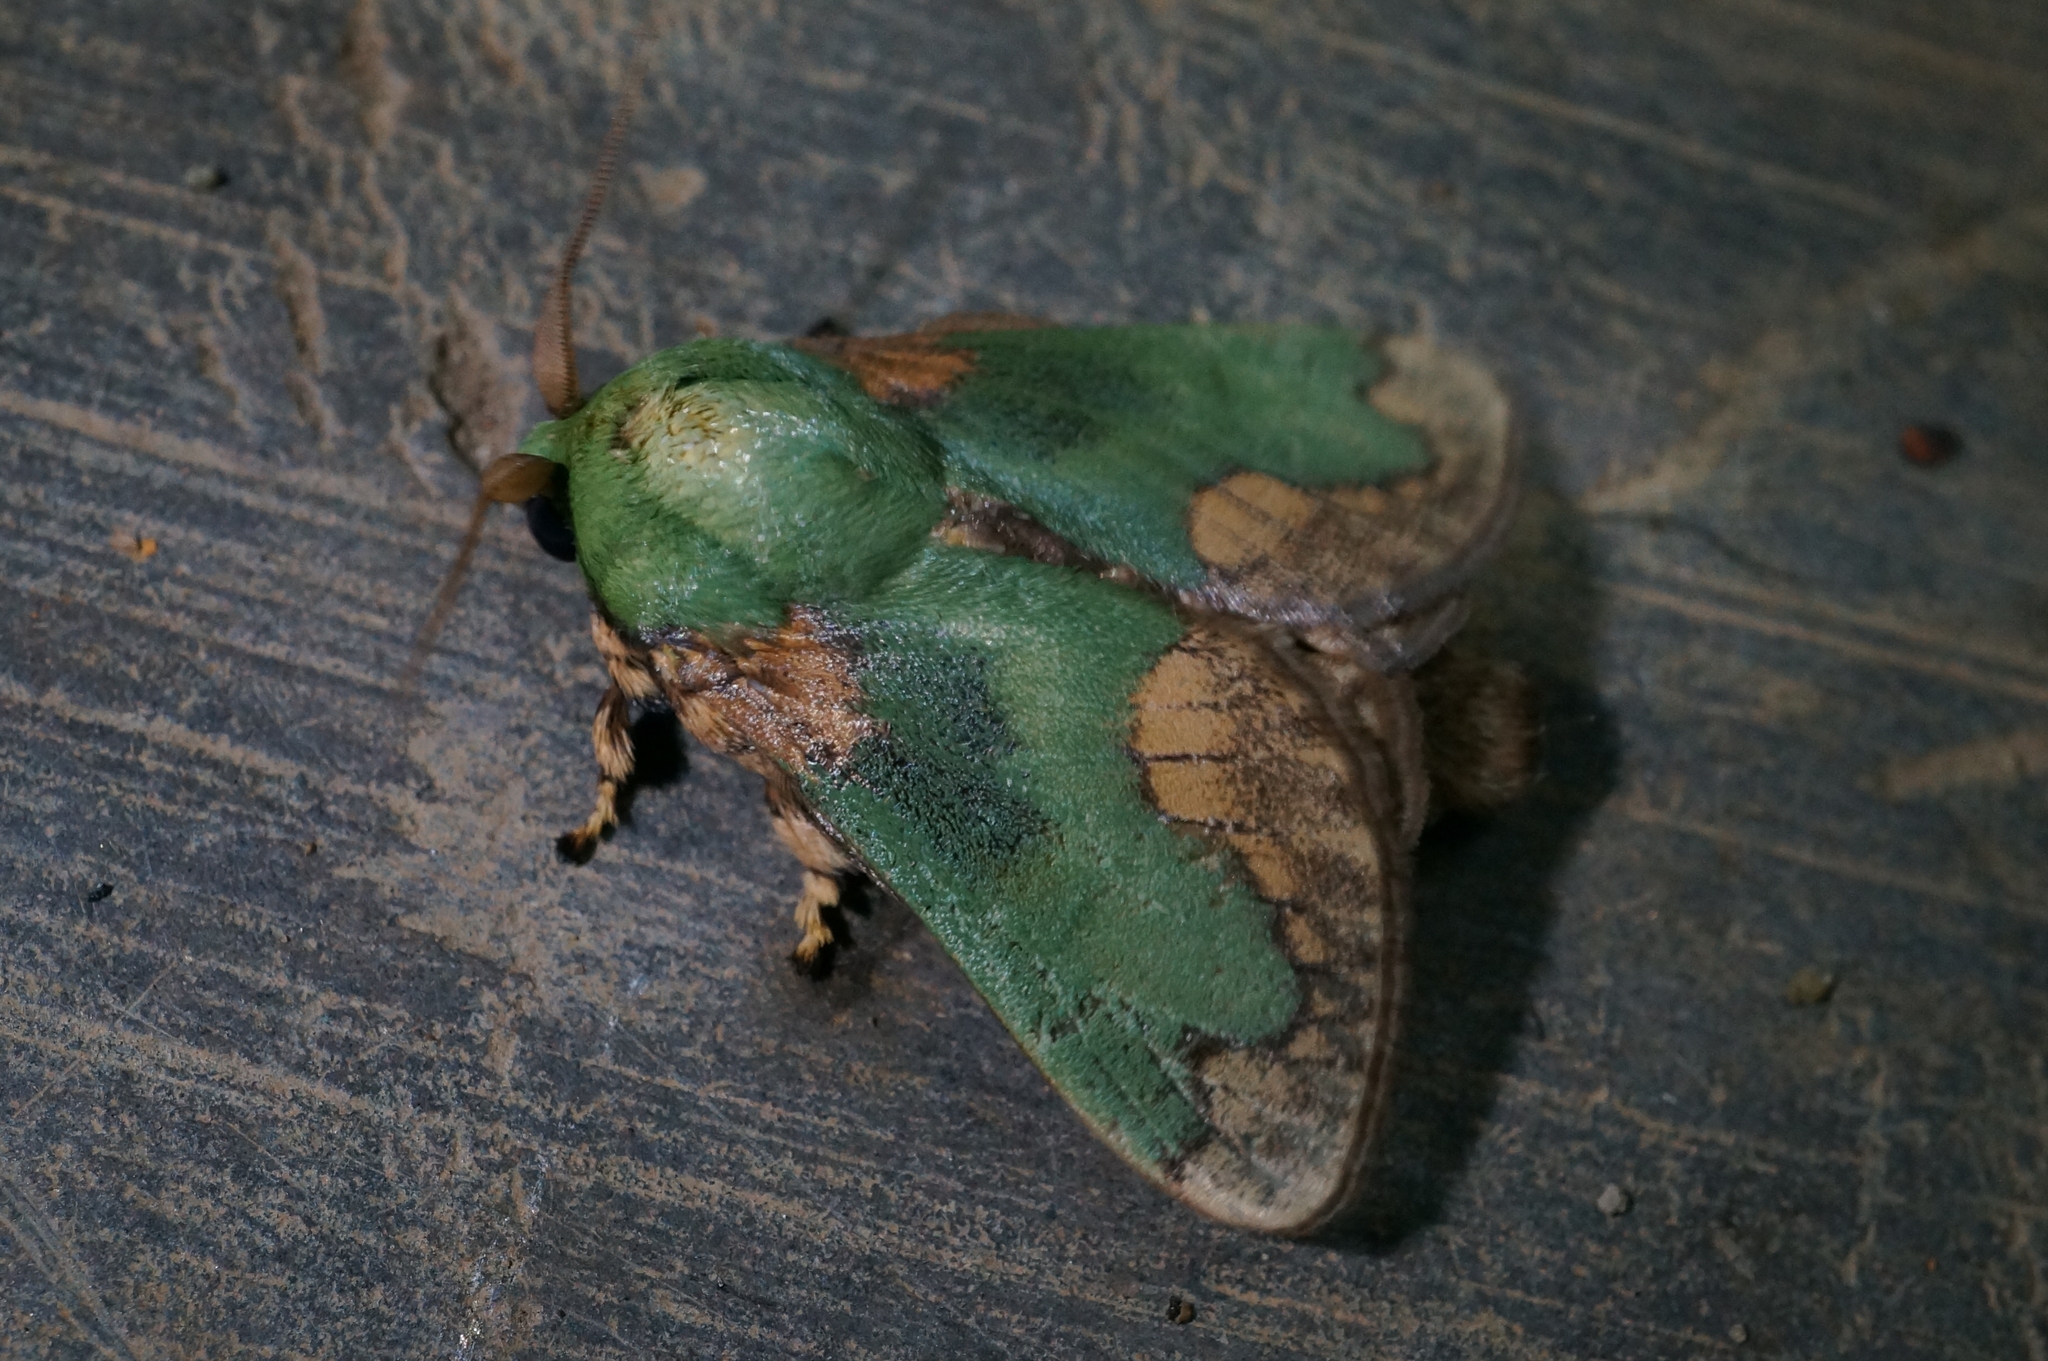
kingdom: Animalia
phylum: Arthropoda
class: Insecta
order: Lepidoptera
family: Limacodidae
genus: Parasa
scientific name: Parasa pastoralis
